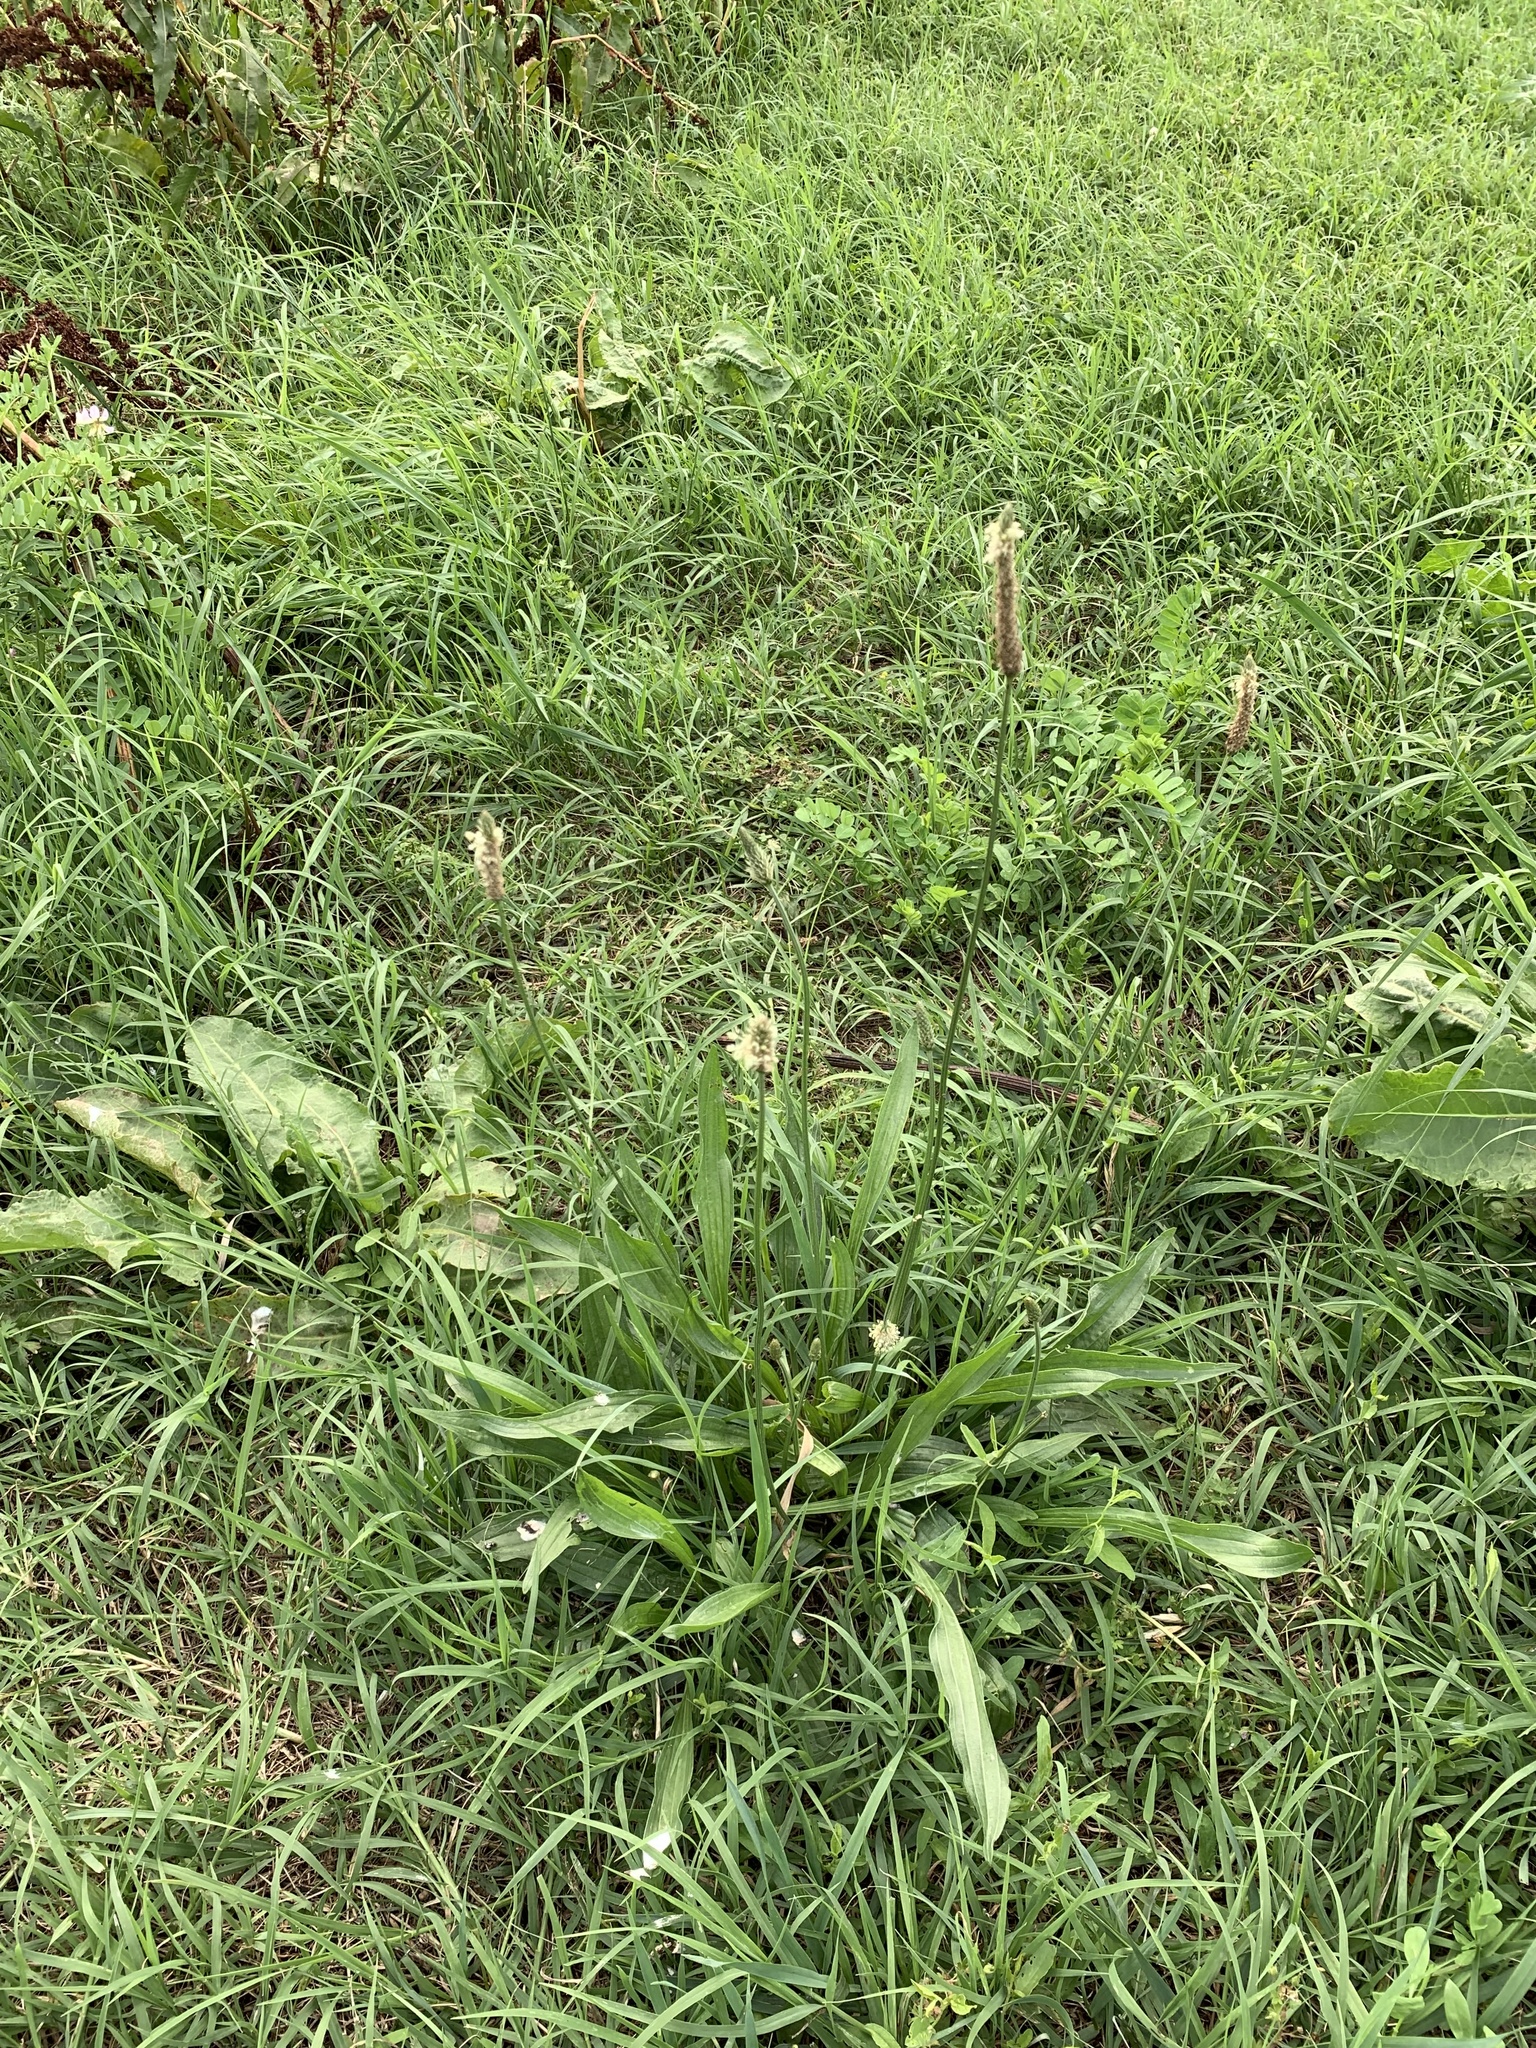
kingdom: Plantae
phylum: Tracheophyta
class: Magnoliopsida
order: Lamiales
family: Plantaginaceae
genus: Plantago
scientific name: Plantago lanceolata
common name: Ribwort plantain
